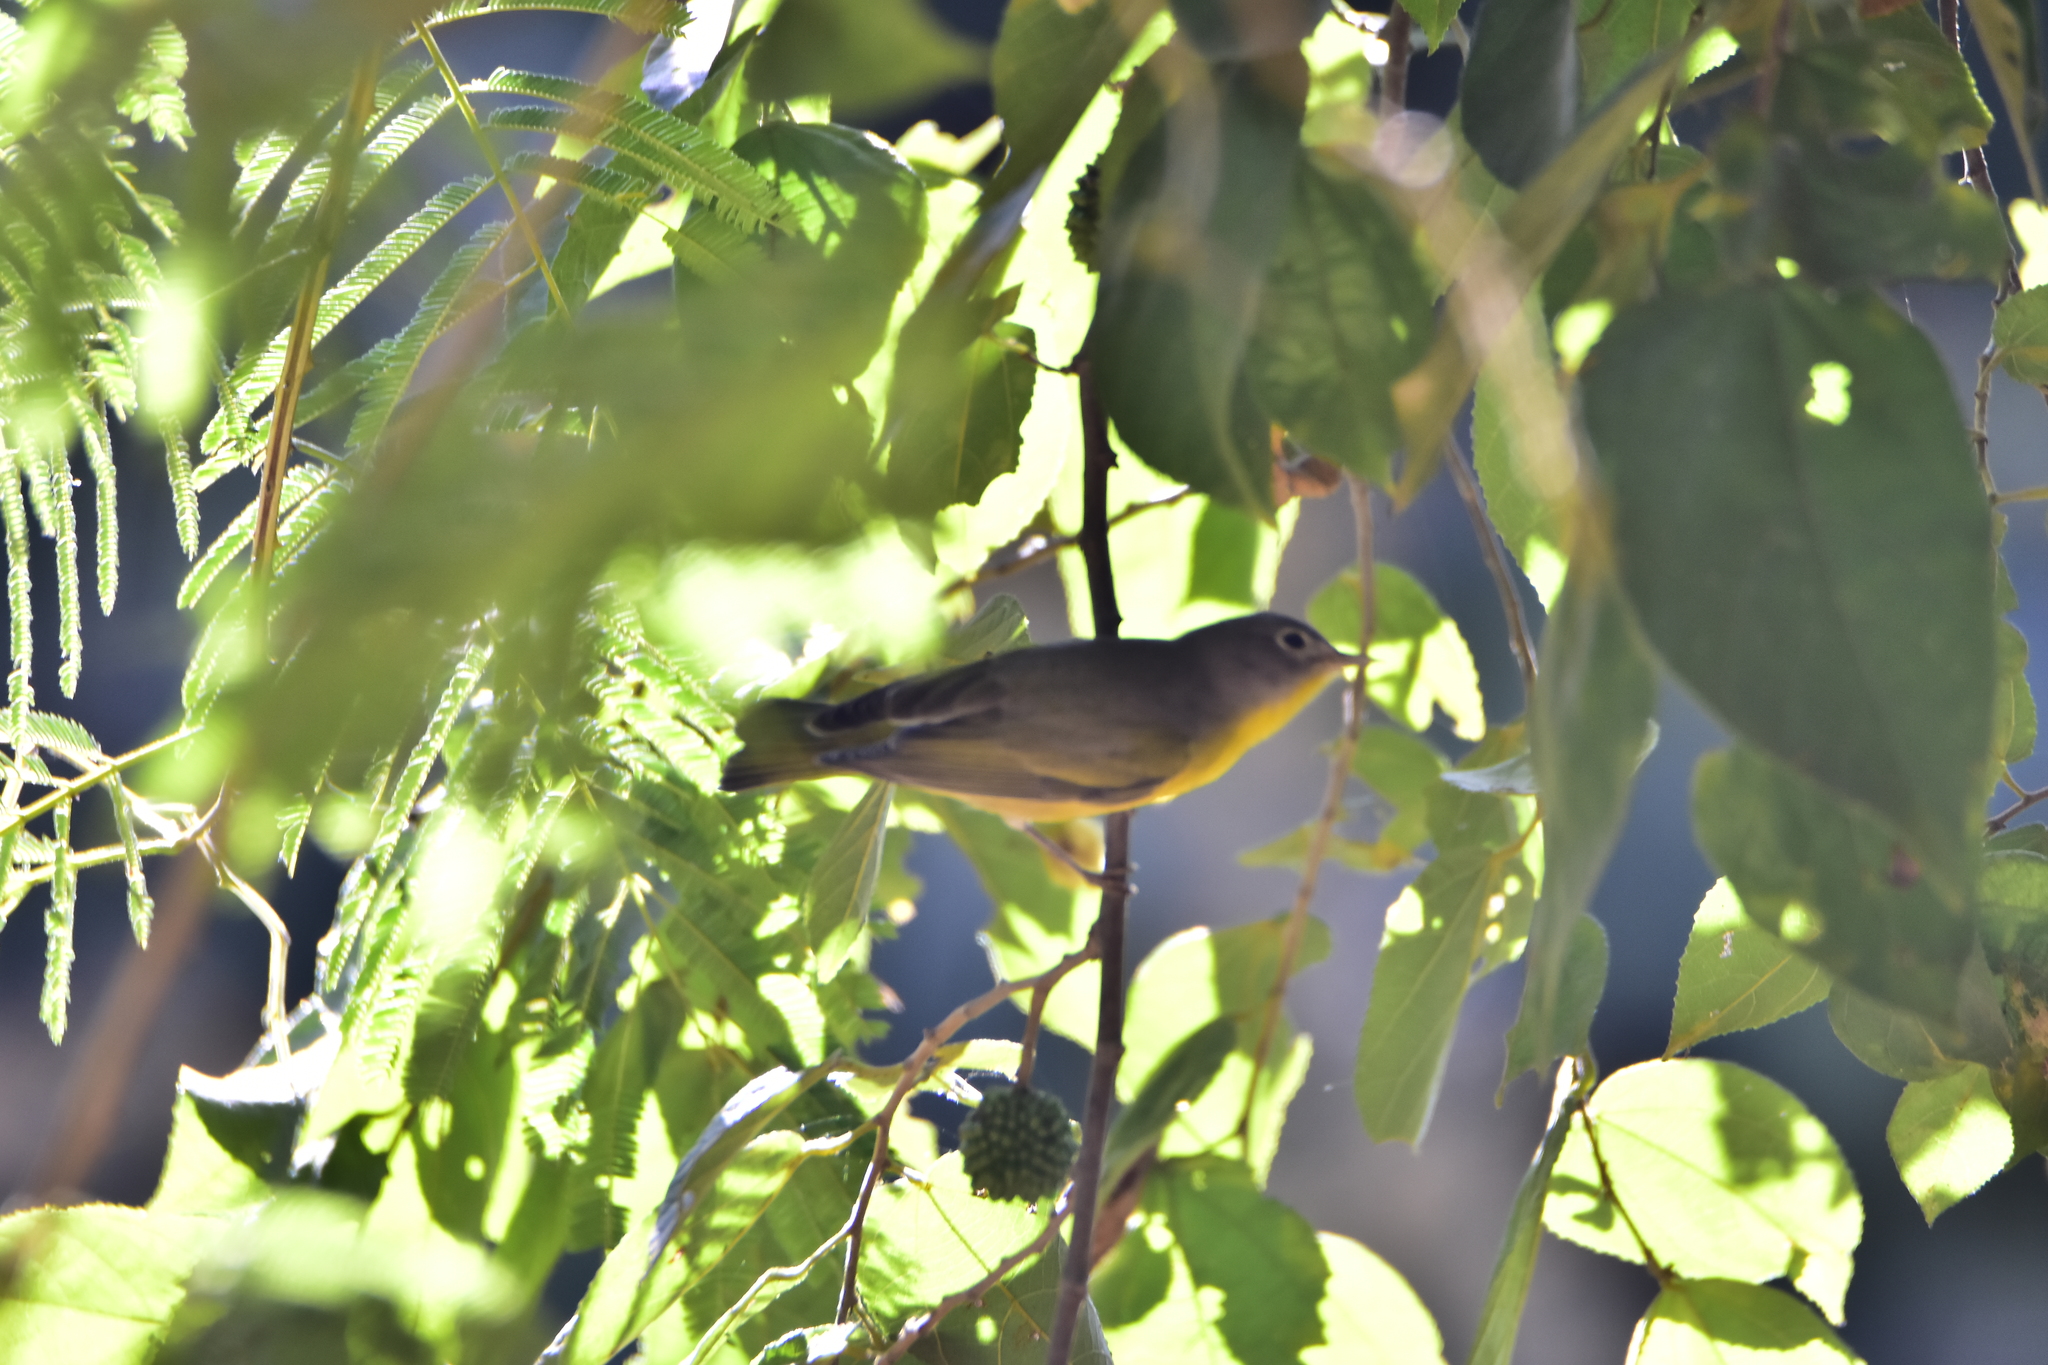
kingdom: Animalia
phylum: Chordata
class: Aves
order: Passeriformes
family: Parulidae
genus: Leiothlypis
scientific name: Leiothlypis ruficapilla
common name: Nashville warbler
